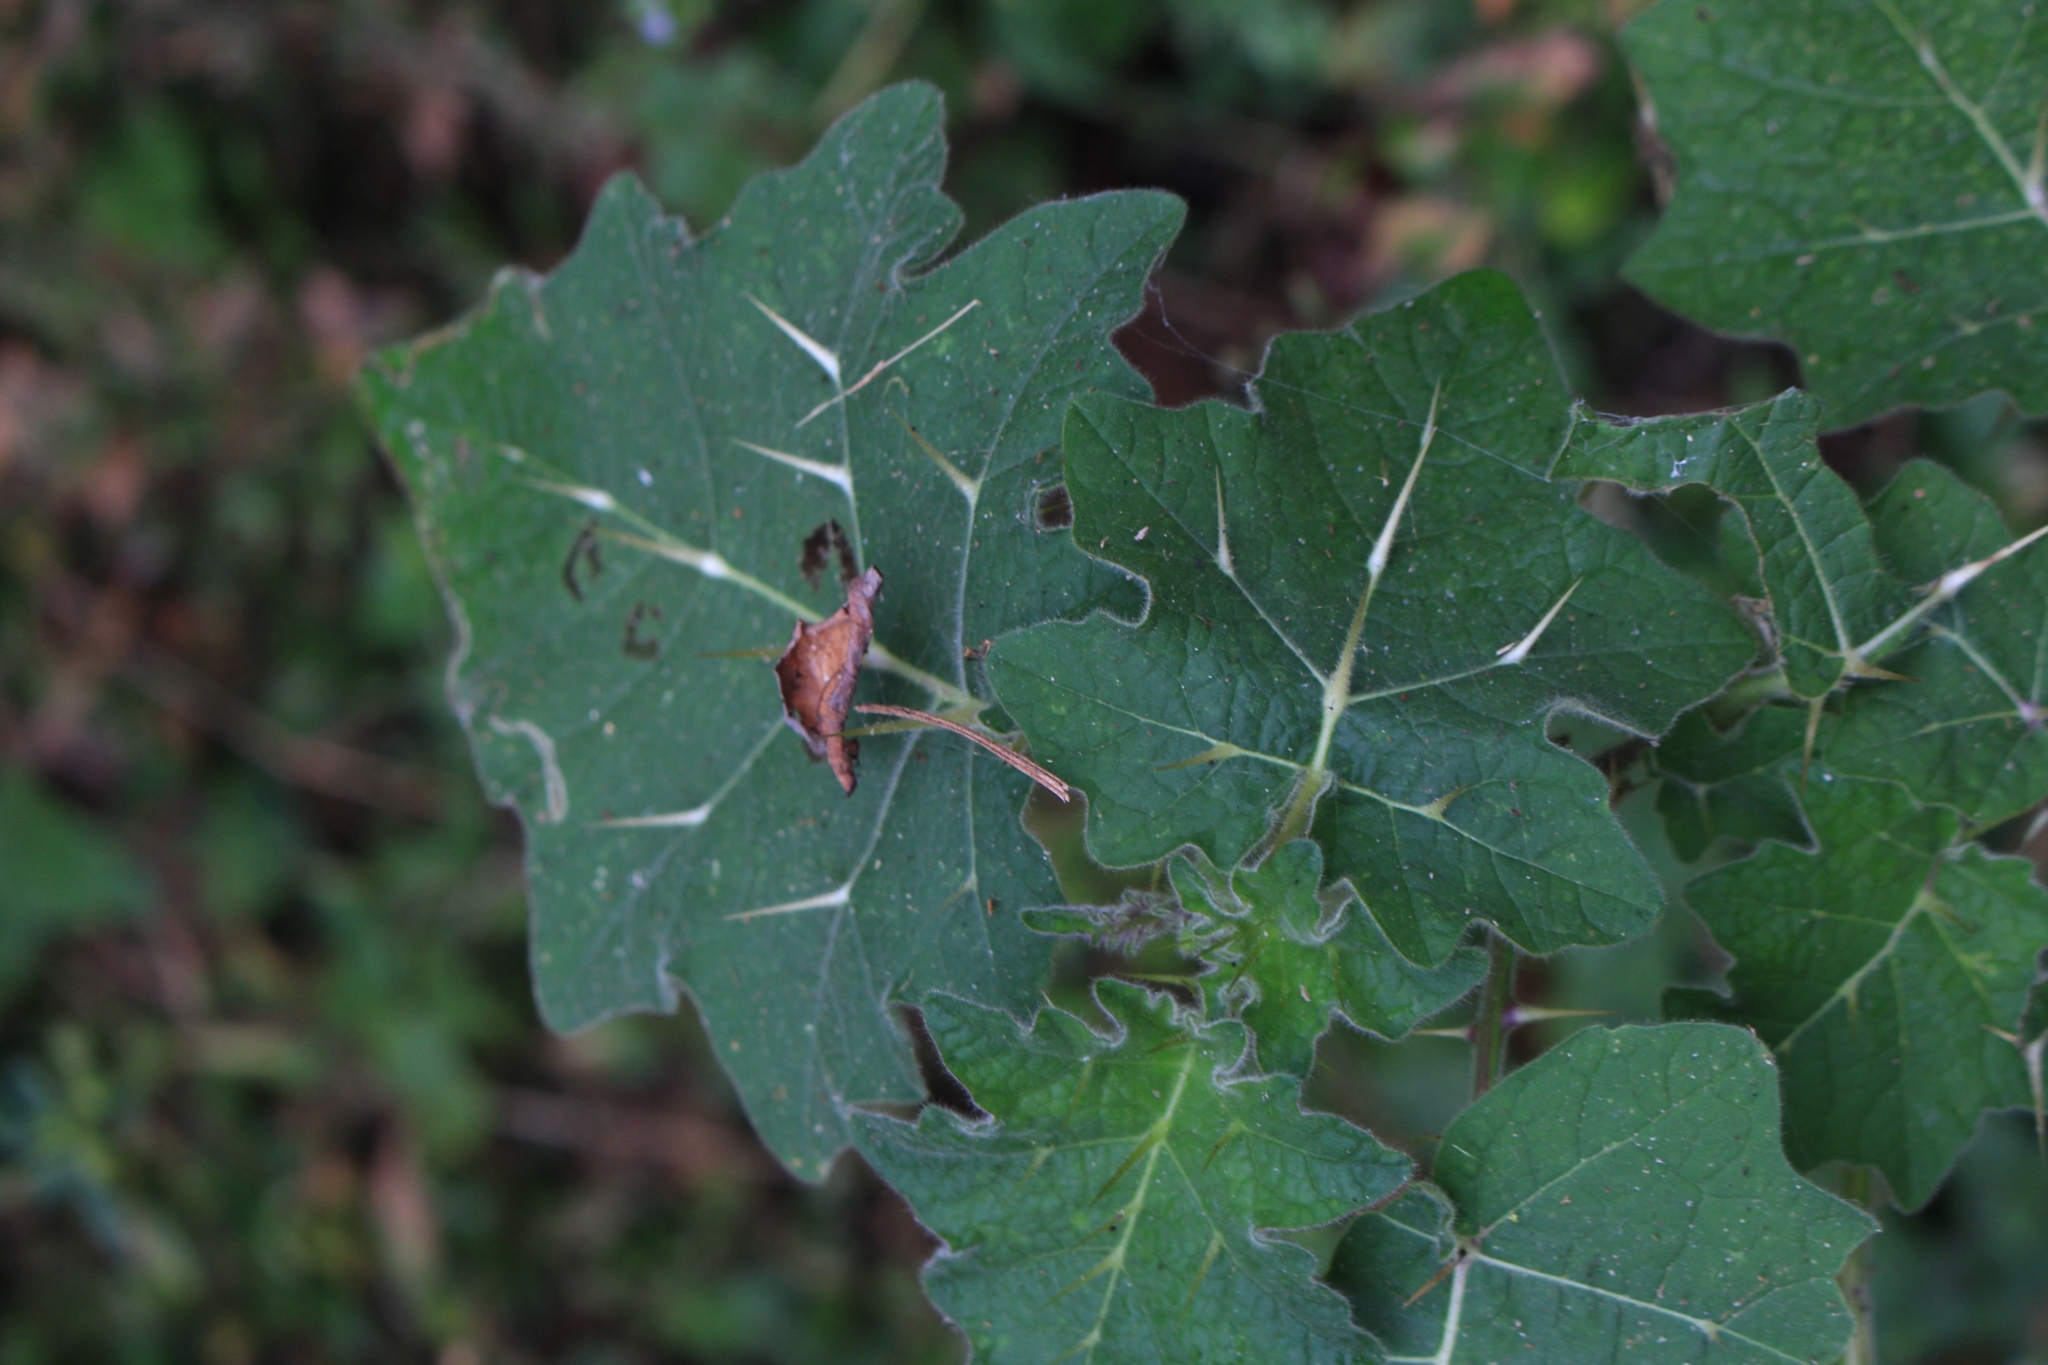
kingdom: Plantae
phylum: Tracheophyta
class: Magnoliopsida
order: Solanales
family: Solanaceae
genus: Solanum
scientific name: Solanum viarum
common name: Tropical soda apple
